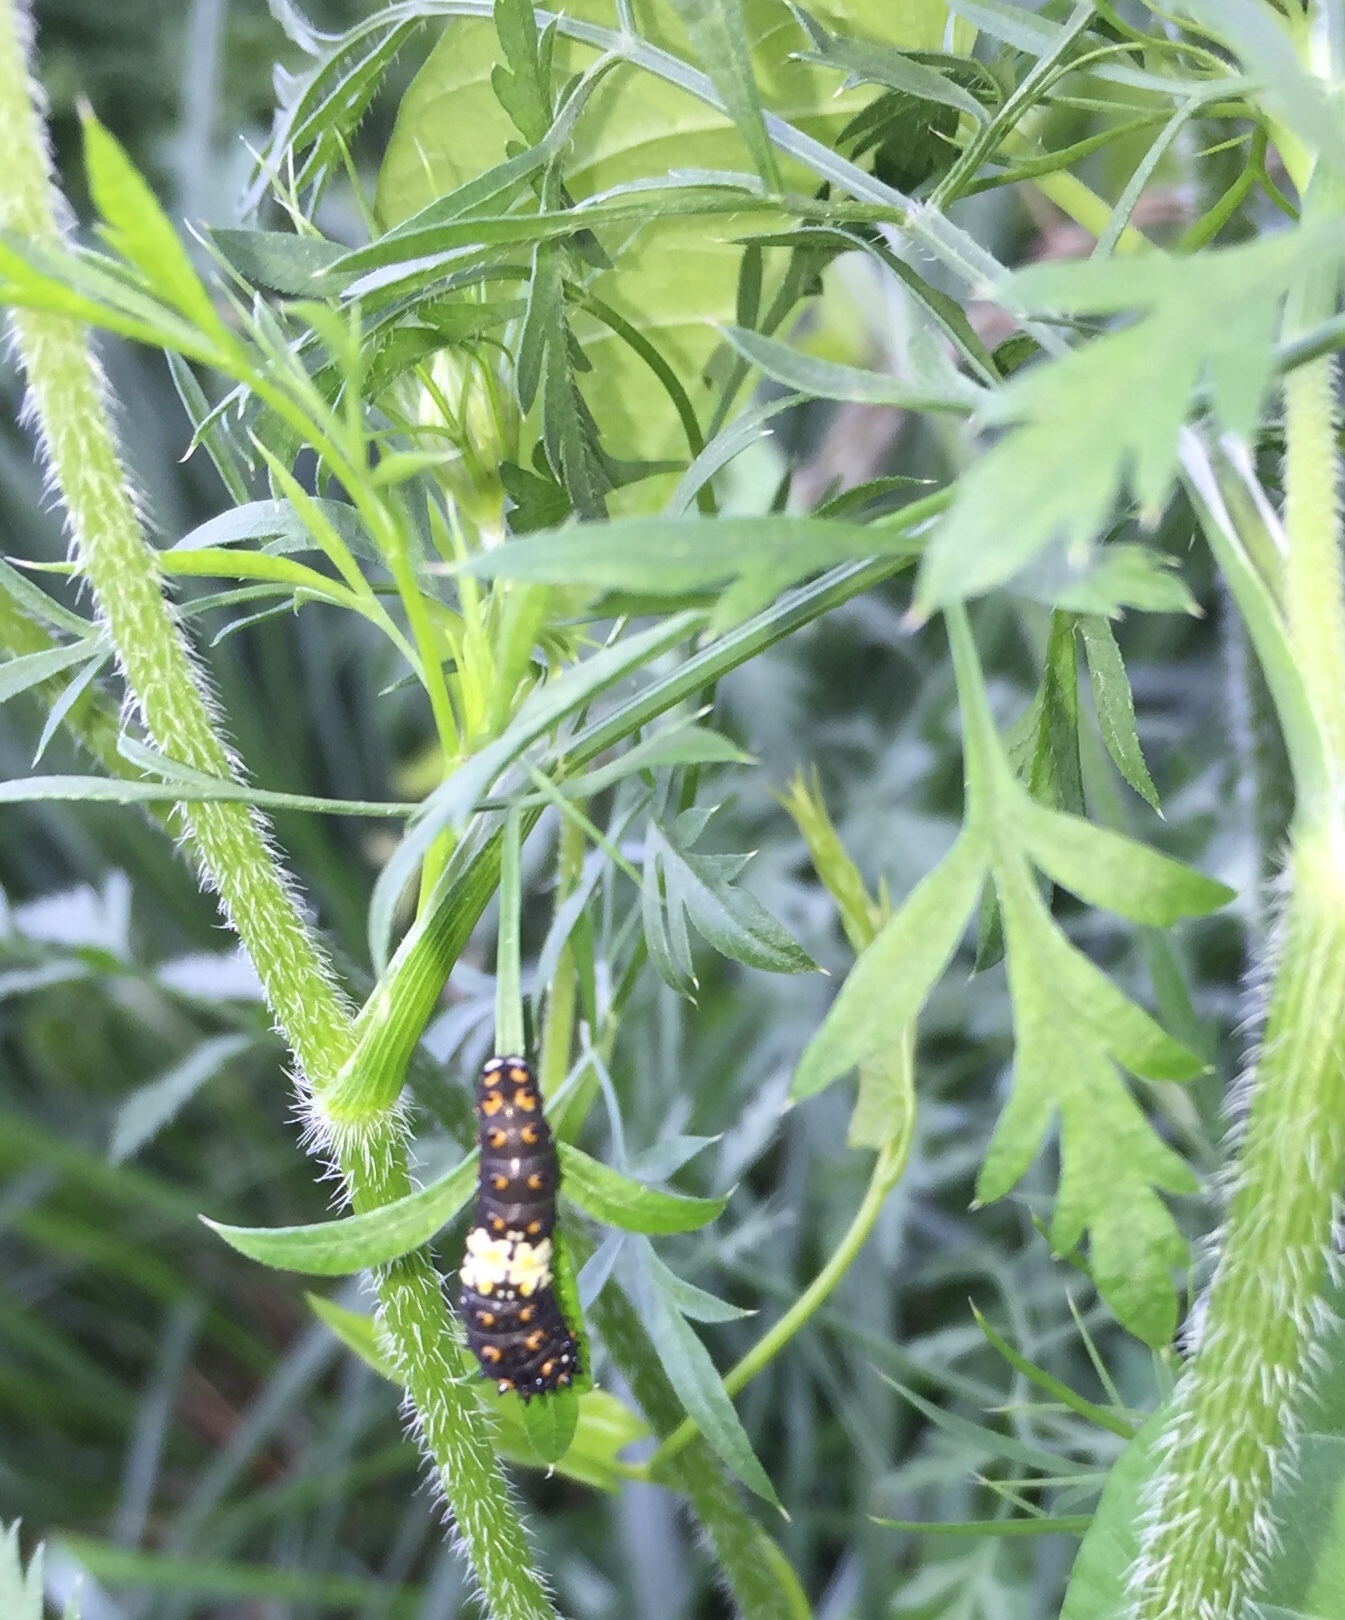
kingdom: Animalia
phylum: Arthropoda
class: Insecta
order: Lepidoptera
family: Papilionidae
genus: Papilio
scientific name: Papilio polyxenes
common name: Black swallowtail
